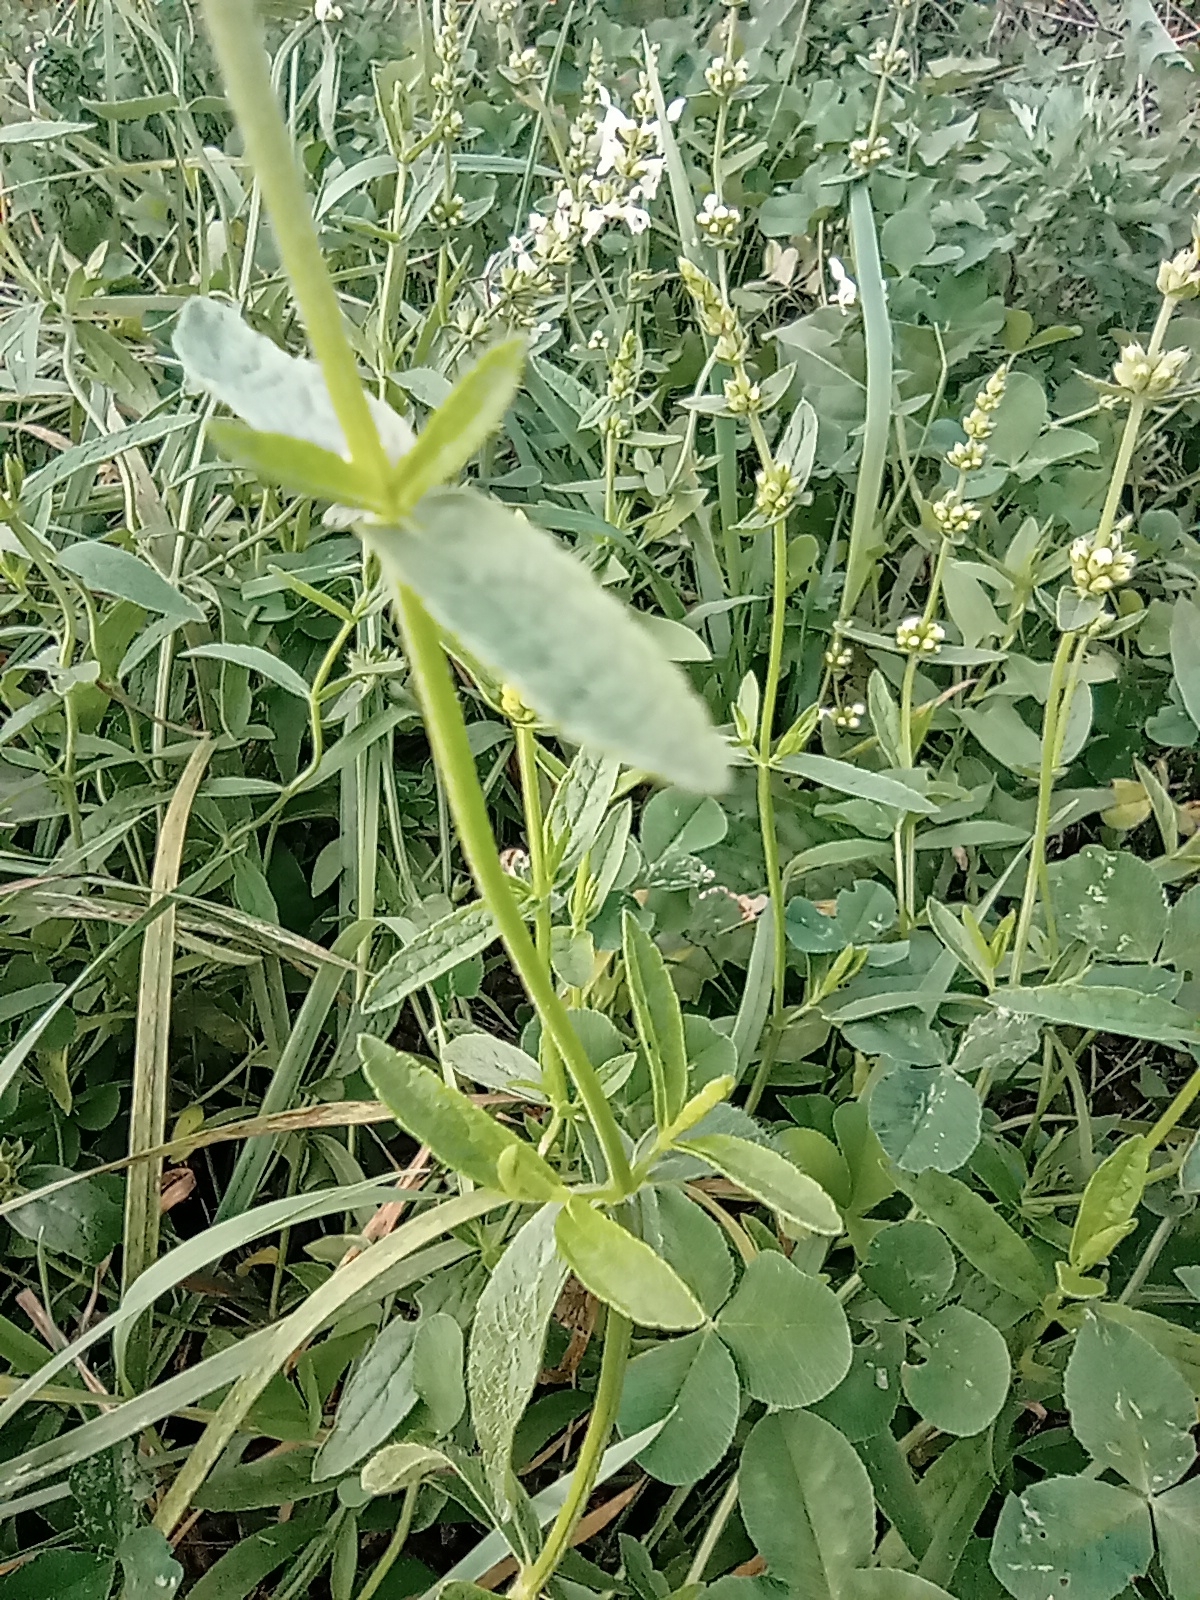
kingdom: Plantae
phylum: Tracheophyta
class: Magnoliopsida
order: Lamiales
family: Lamiaceae
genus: Stachys
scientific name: Stachys recta
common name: Perennial yellow-woundwort
